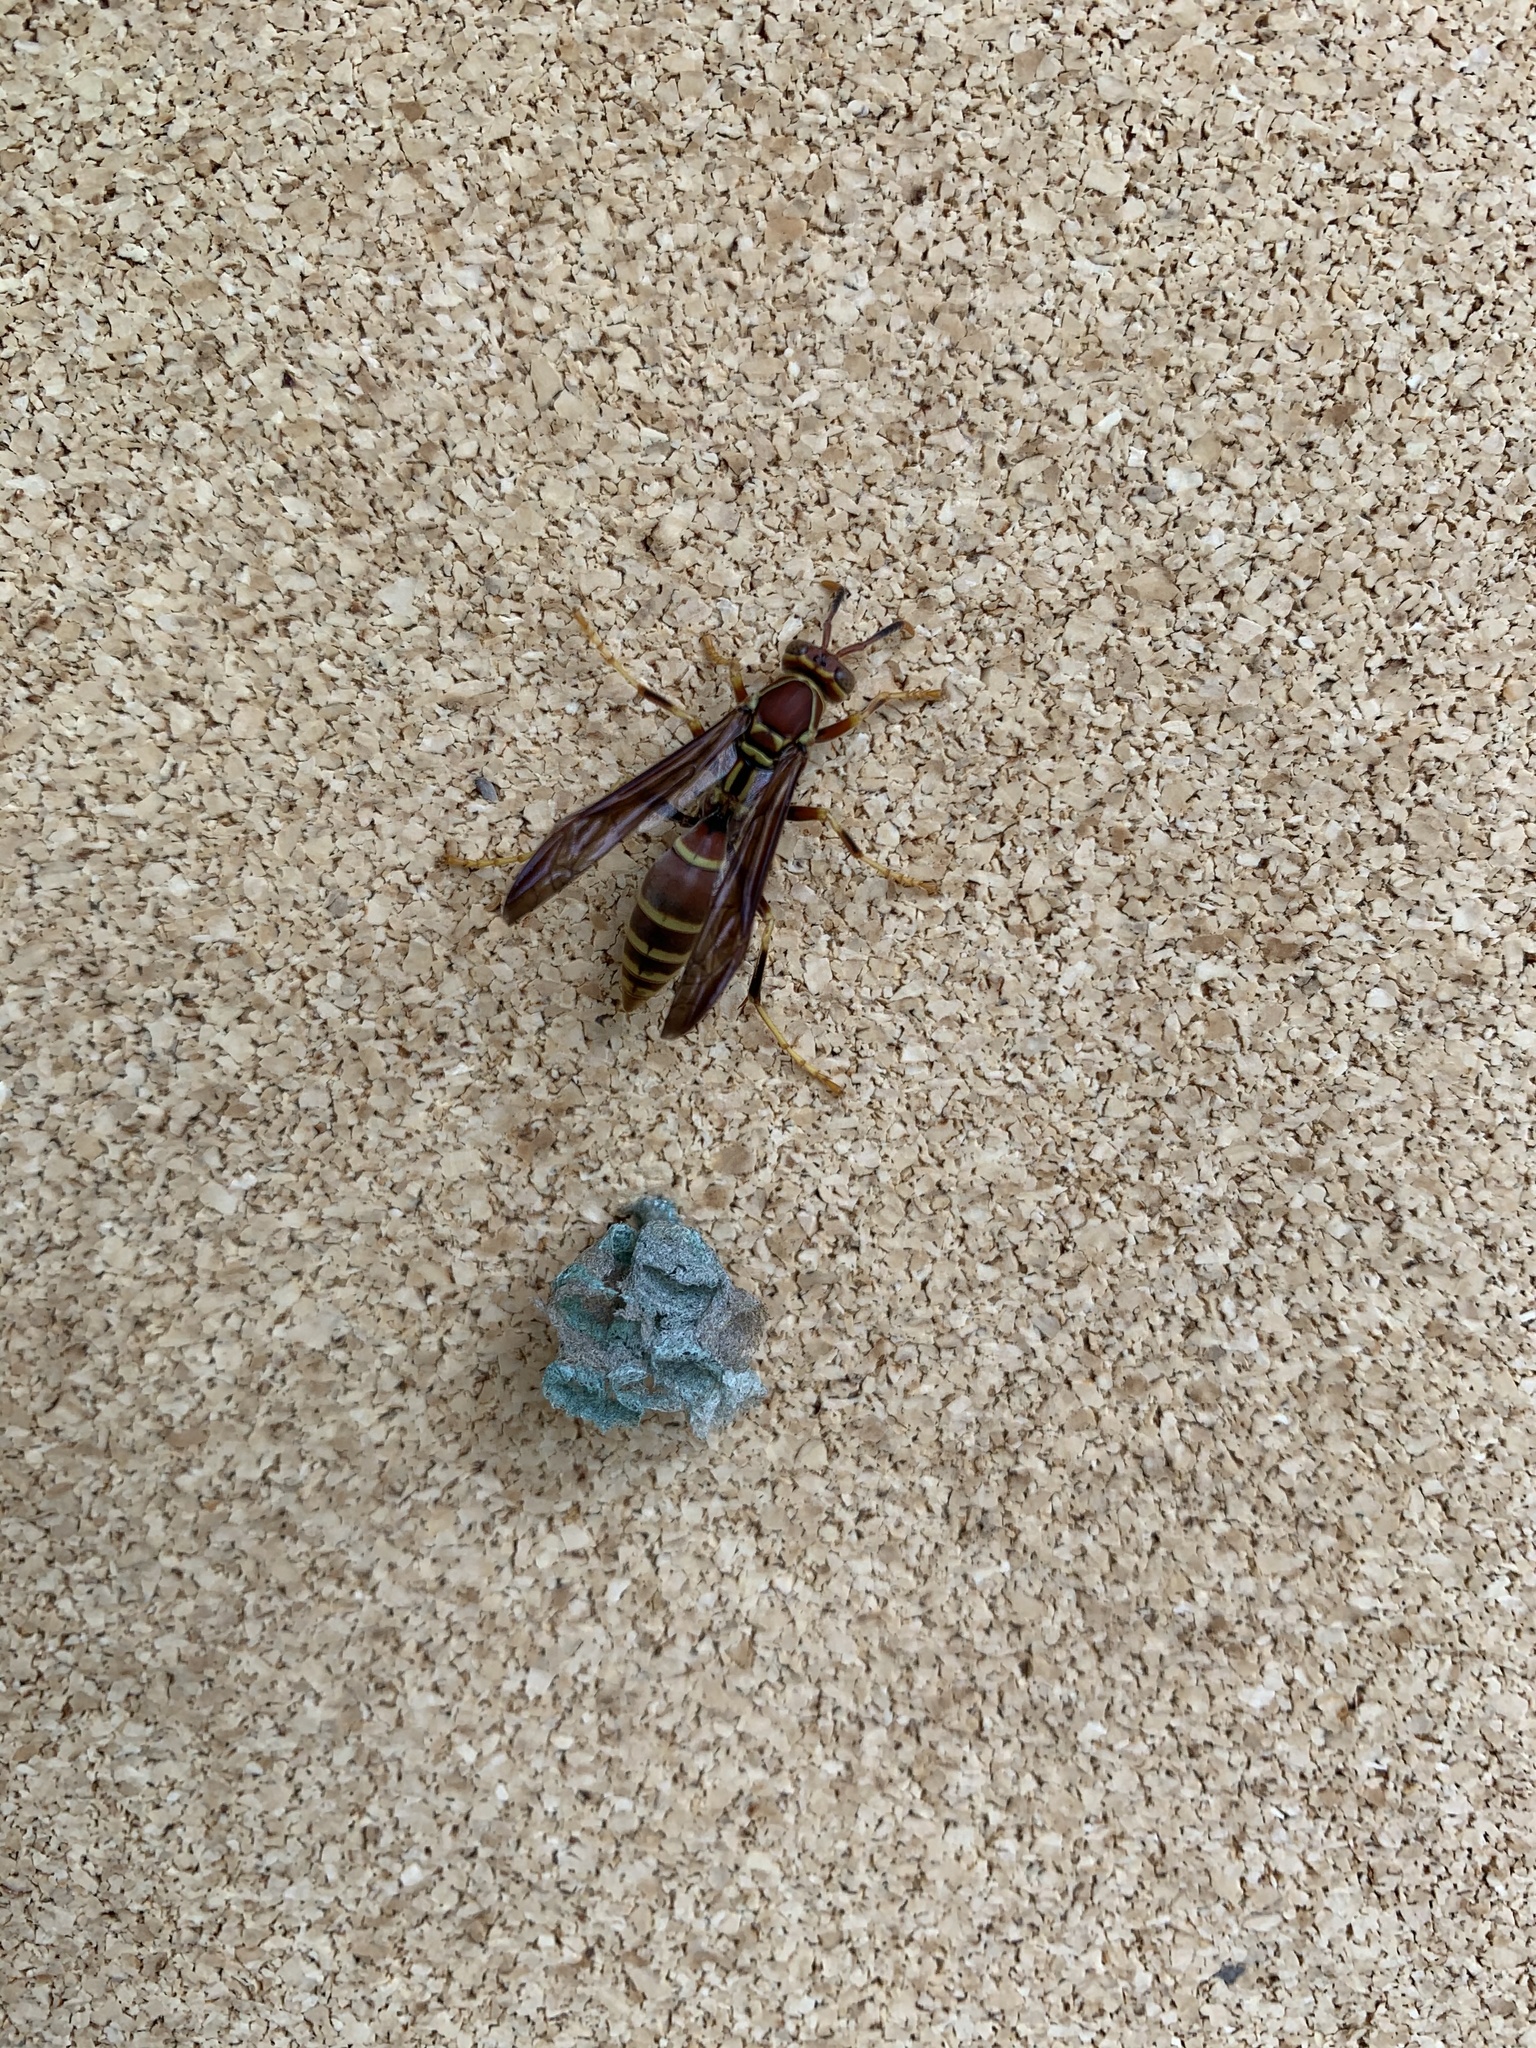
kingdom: Animalia
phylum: Arthropoda
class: Insecta
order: Hymenoptera
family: Eumenidae
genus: Polistes
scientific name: Polistes exclamans
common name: Paper wasp
